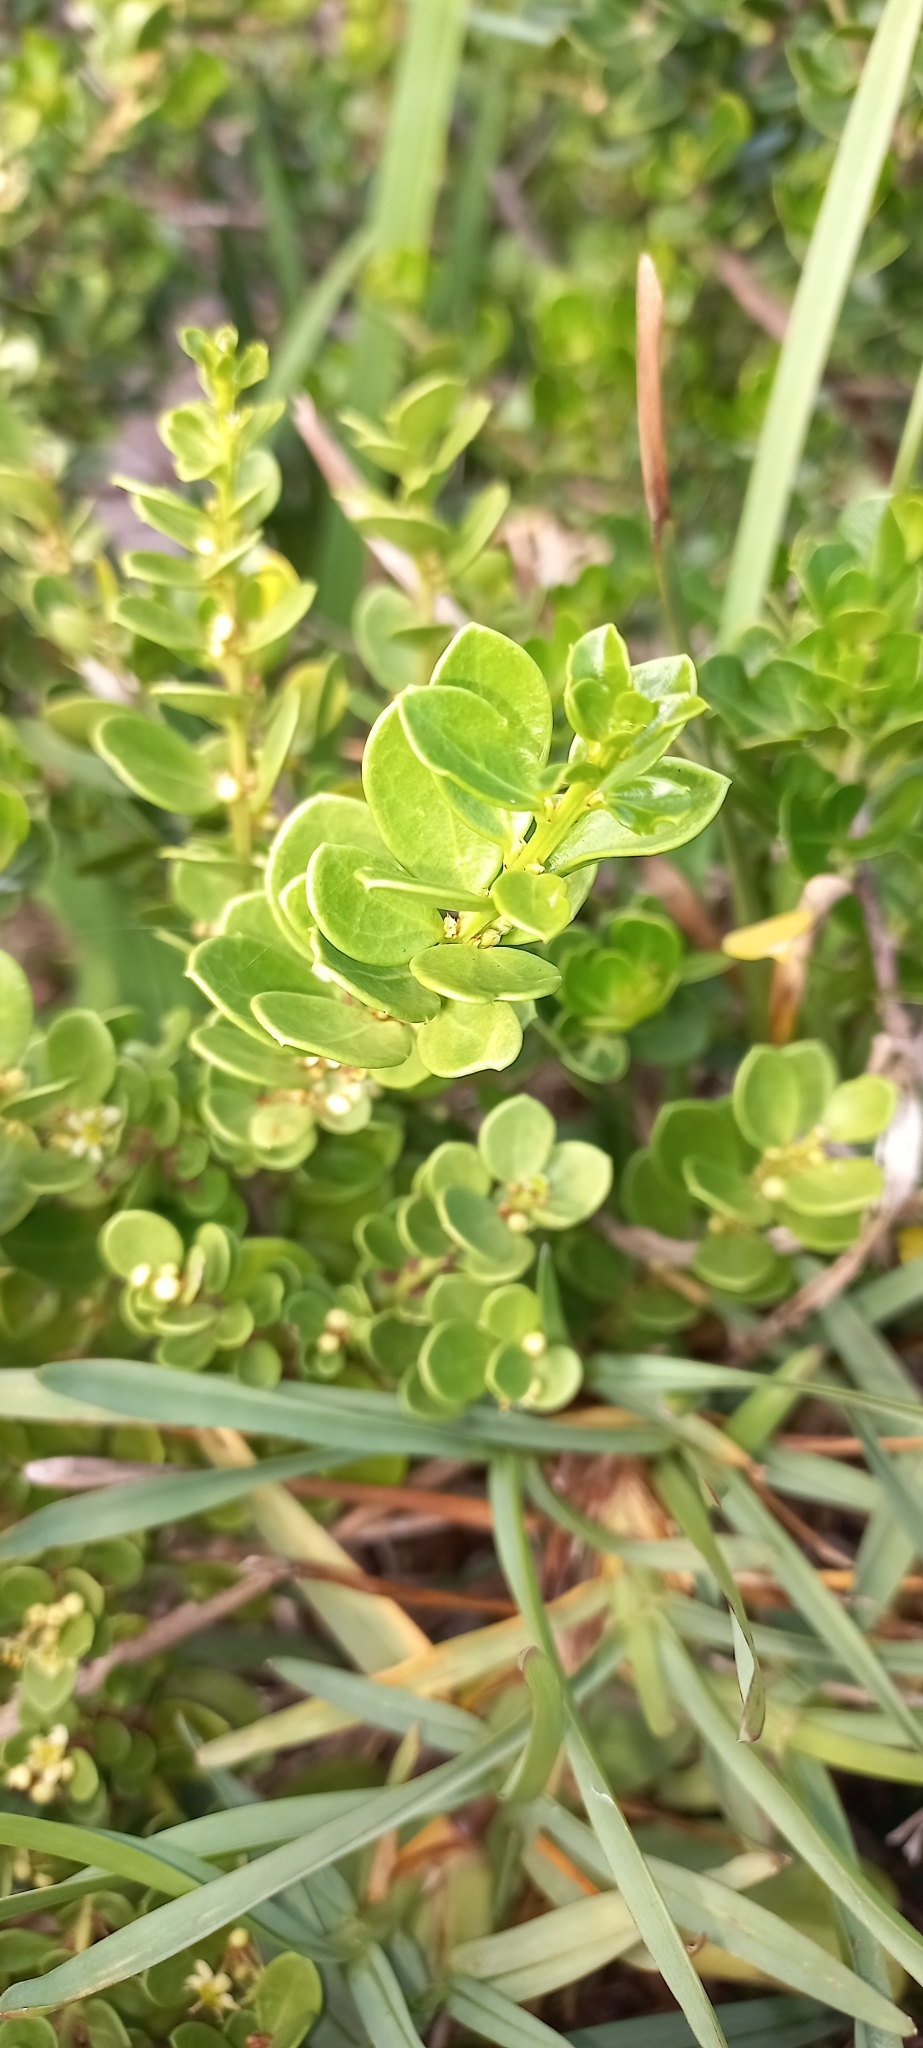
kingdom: Plantae
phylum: Tracheophyta
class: Magnoliopsida
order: Malpighiales
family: Peraceae
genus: Clutia
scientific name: Clutia alaternoides
